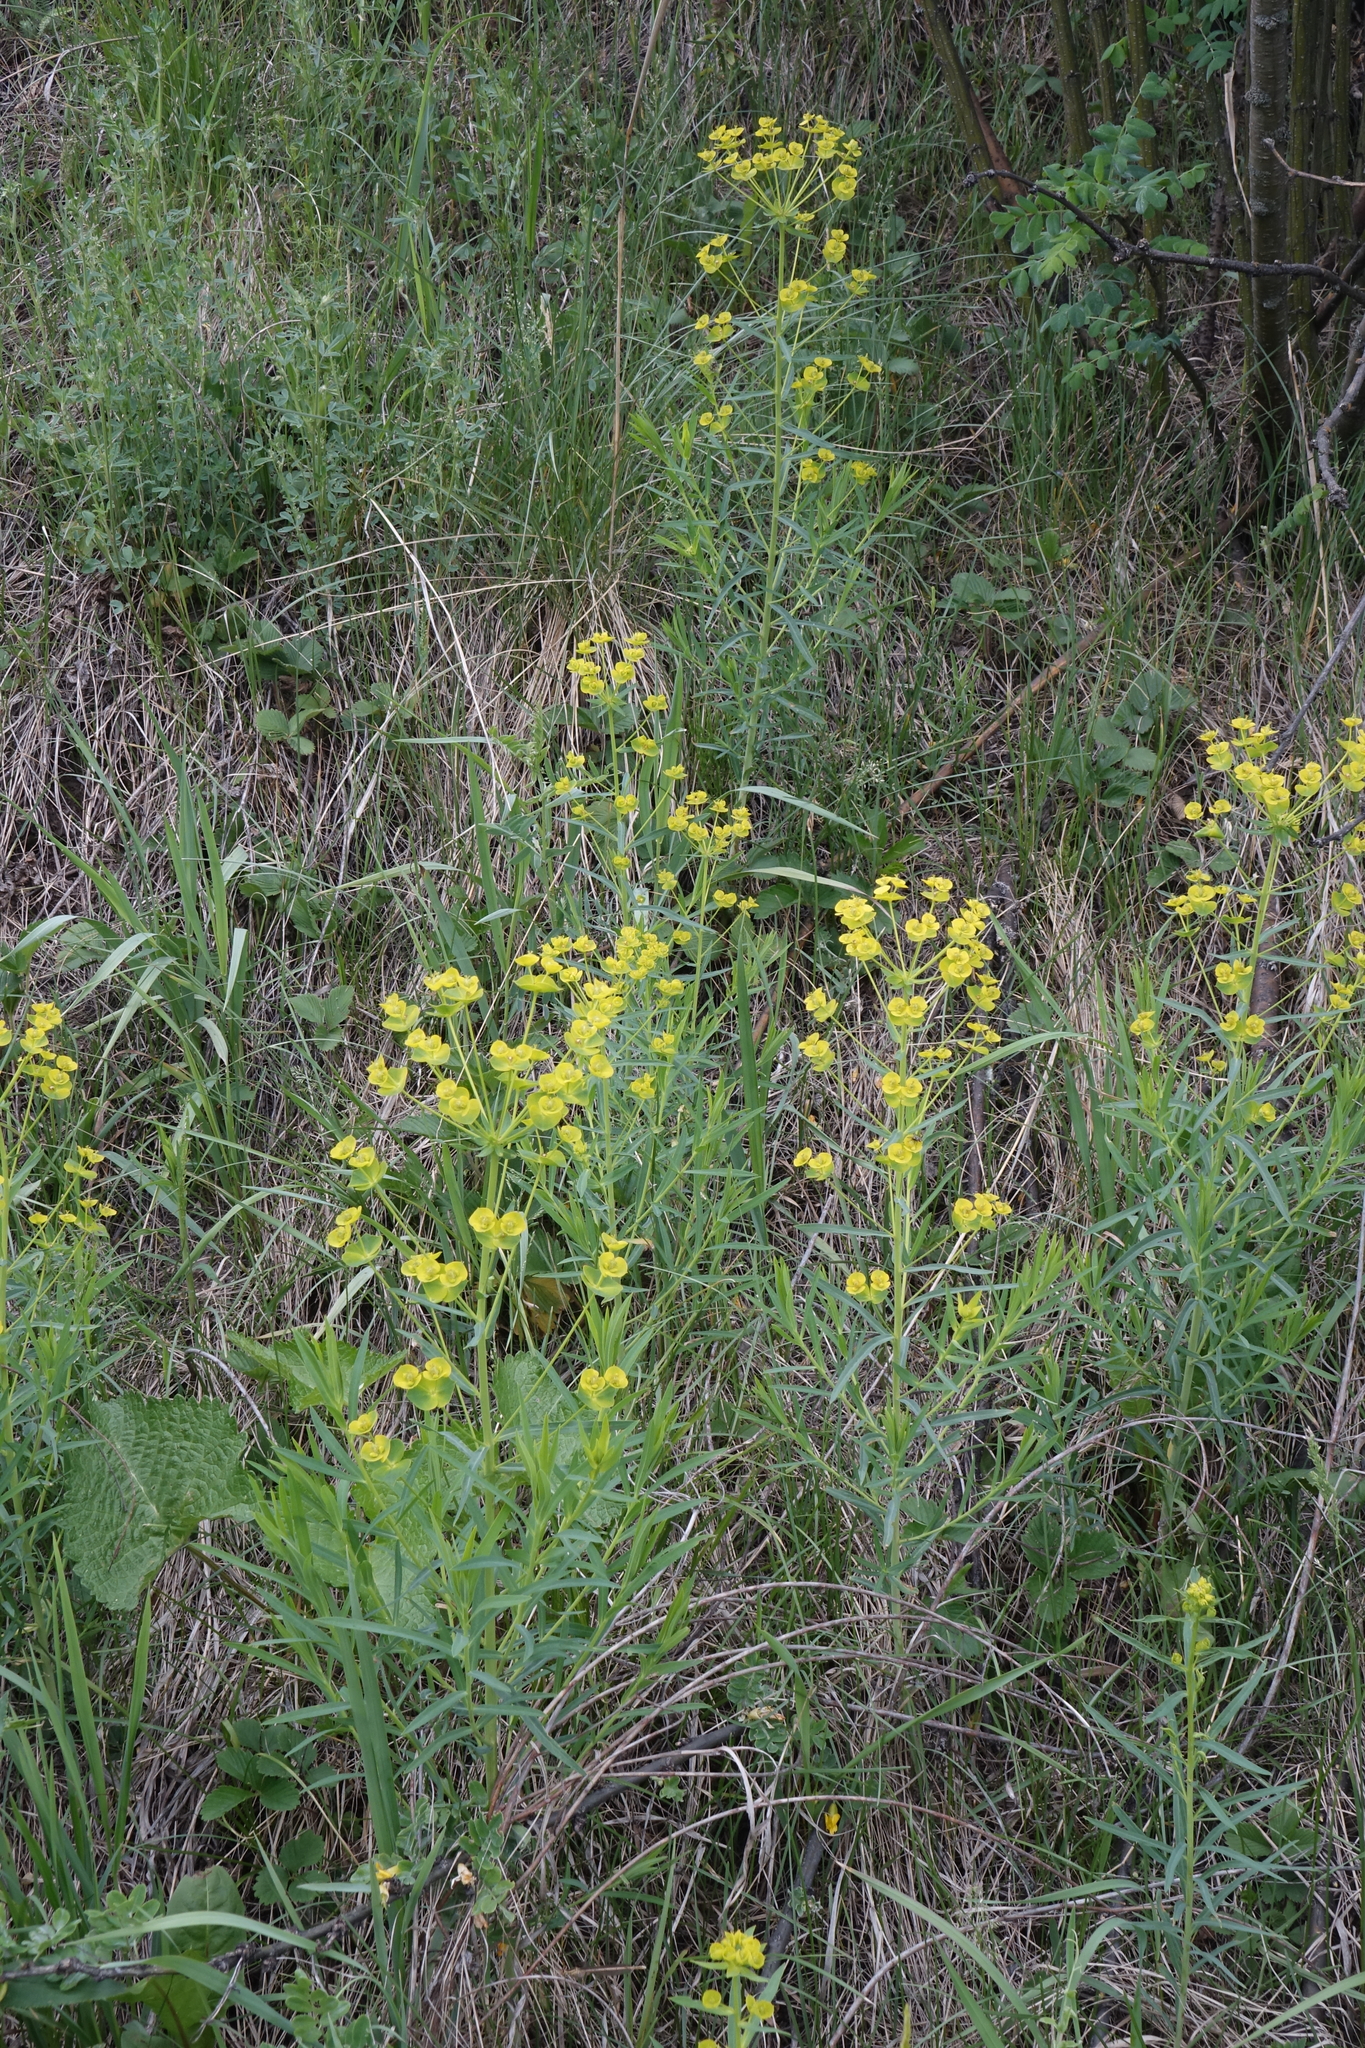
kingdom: Plantae
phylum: Tracheophyta
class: Magnoliopsida
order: Malpighiales
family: Euphorbiaceae
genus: Euphorbia
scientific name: Euphorbia virgata
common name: Leafy spurge
